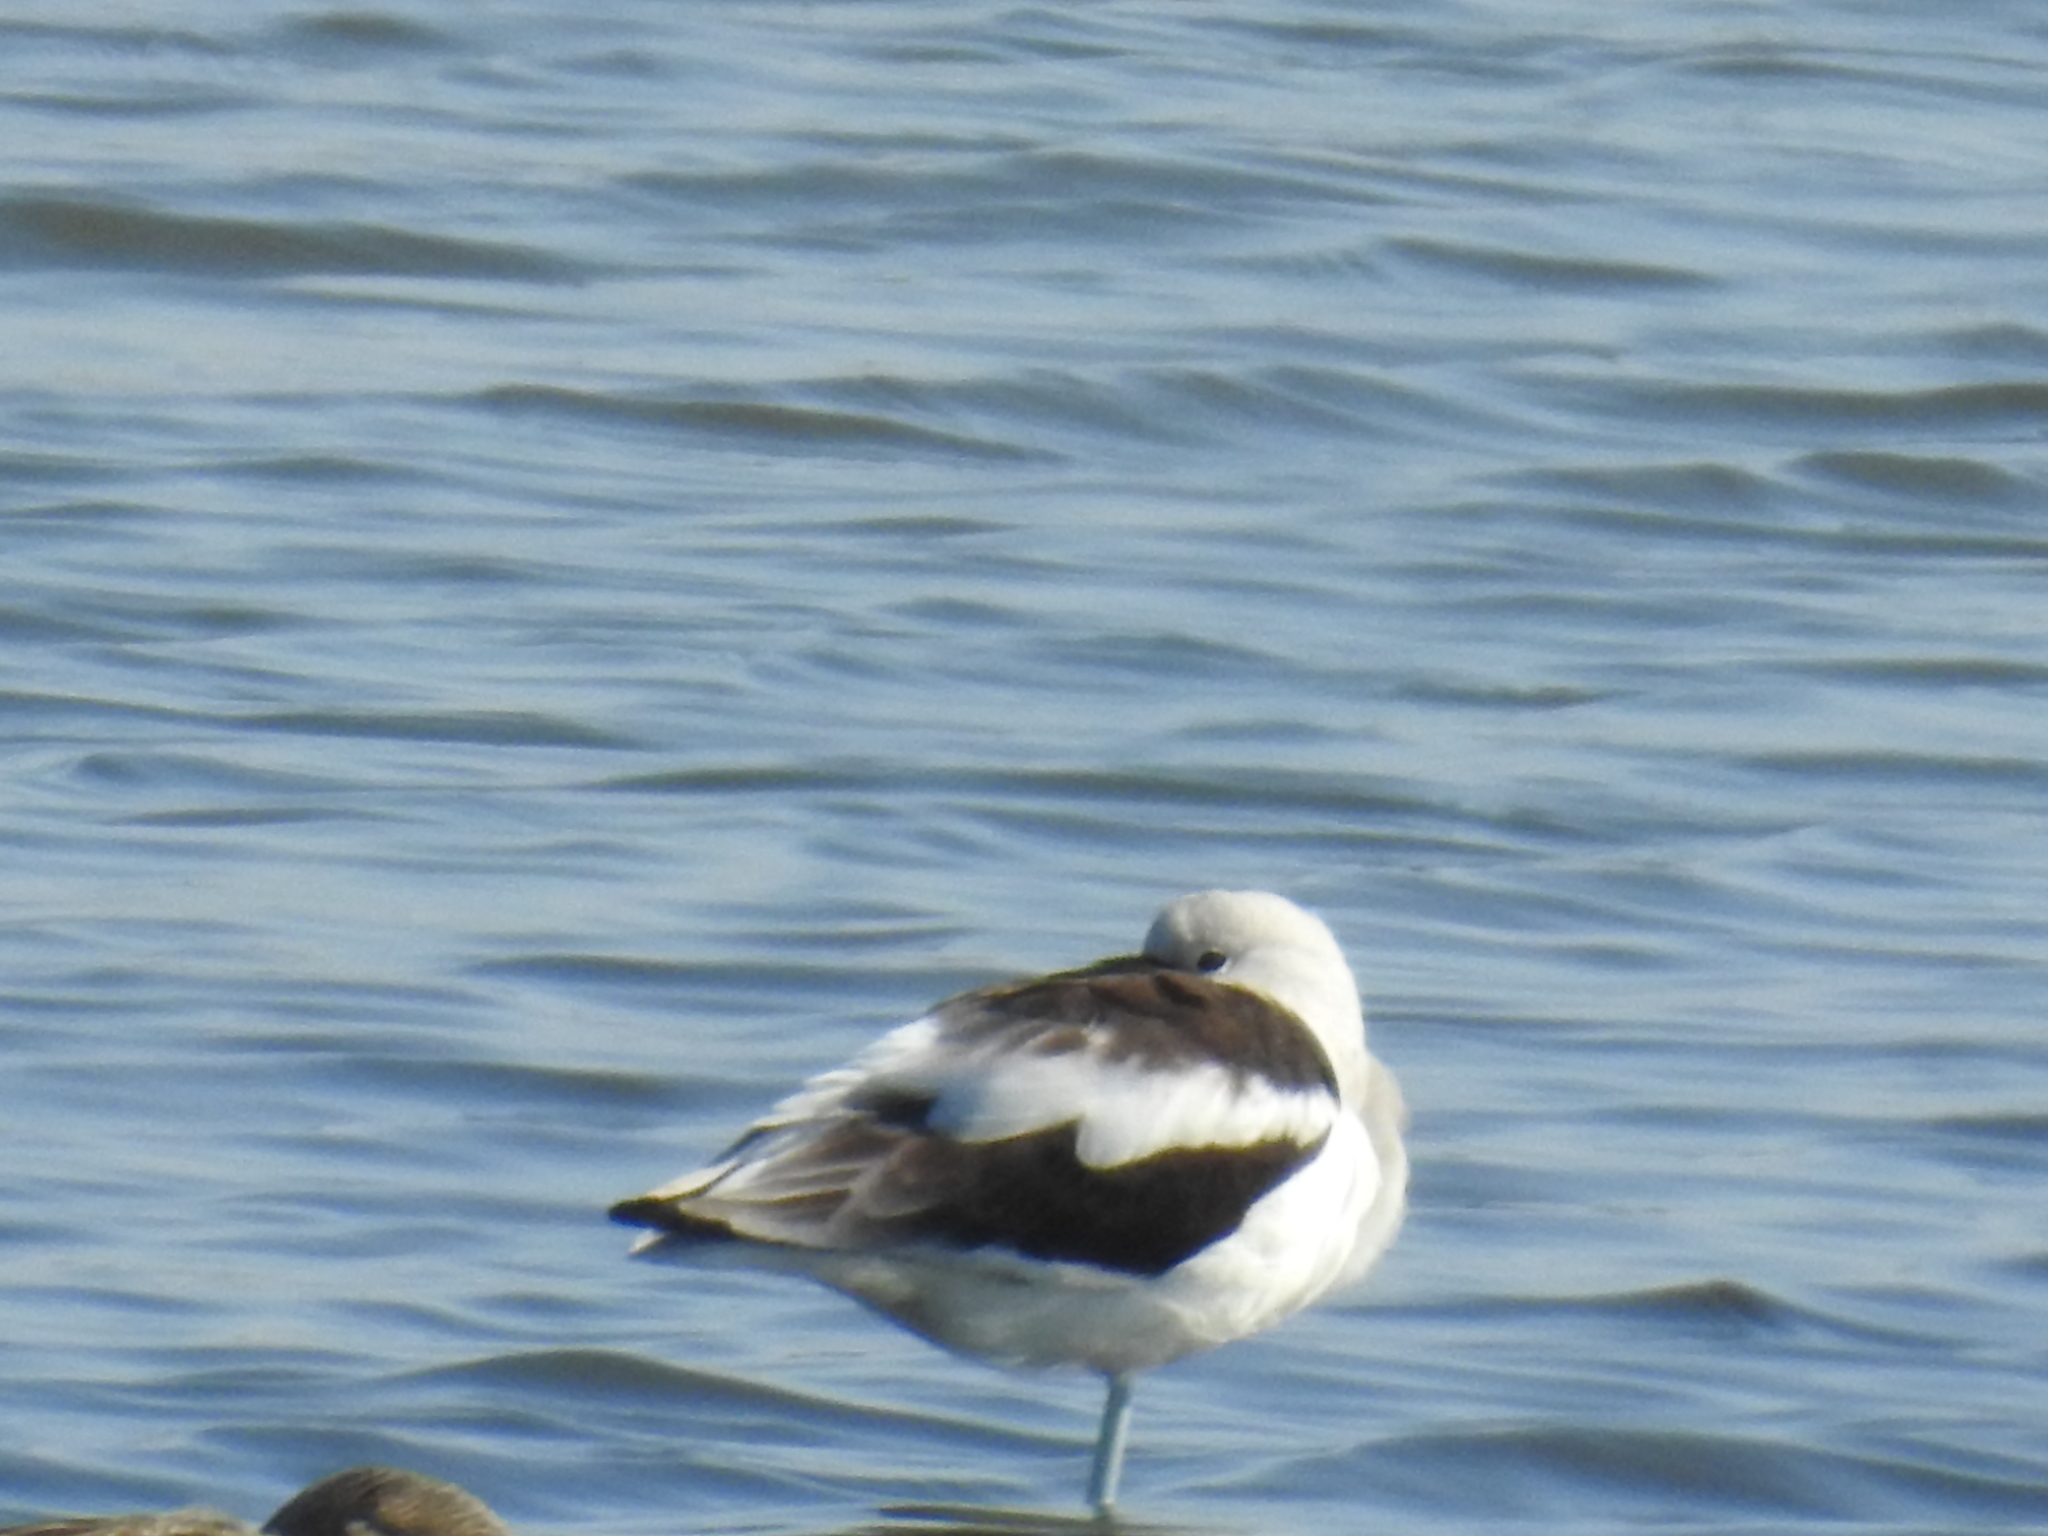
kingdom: Animalia
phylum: Chordata
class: Aves
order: Charadriiformes
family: Recurvirostridae
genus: Recurvirostra
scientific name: Recurvirostra americana
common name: American avocet
